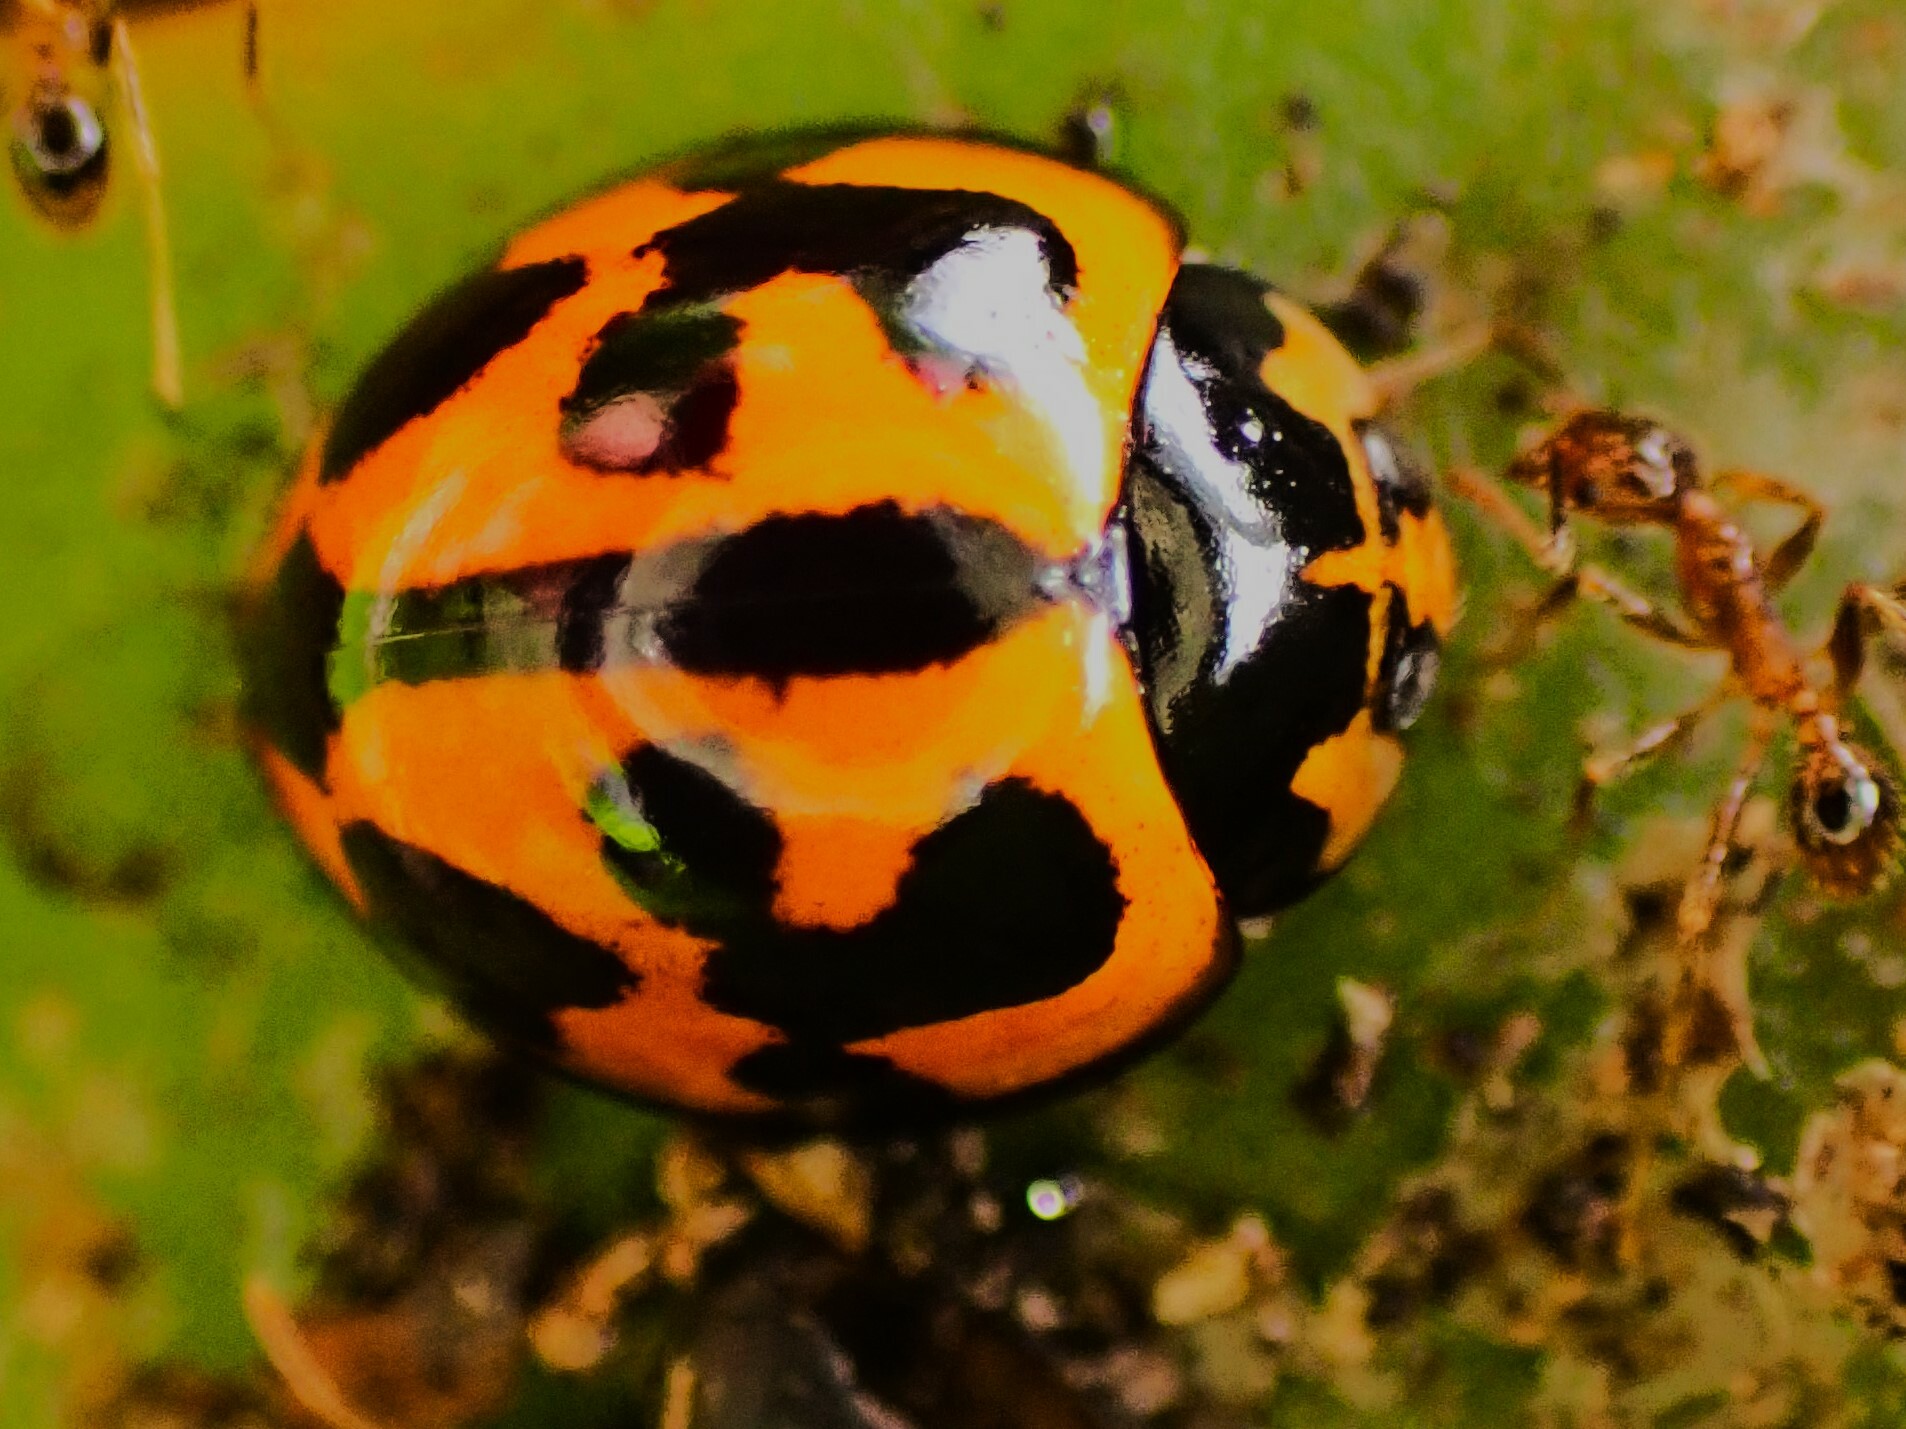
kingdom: Animalia
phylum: Arthropoda
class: Insecta
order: Coleoptera
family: Coccinellidae
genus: Coelophora
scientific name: Coelophora inaequalis
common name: Common australian lady beetle
